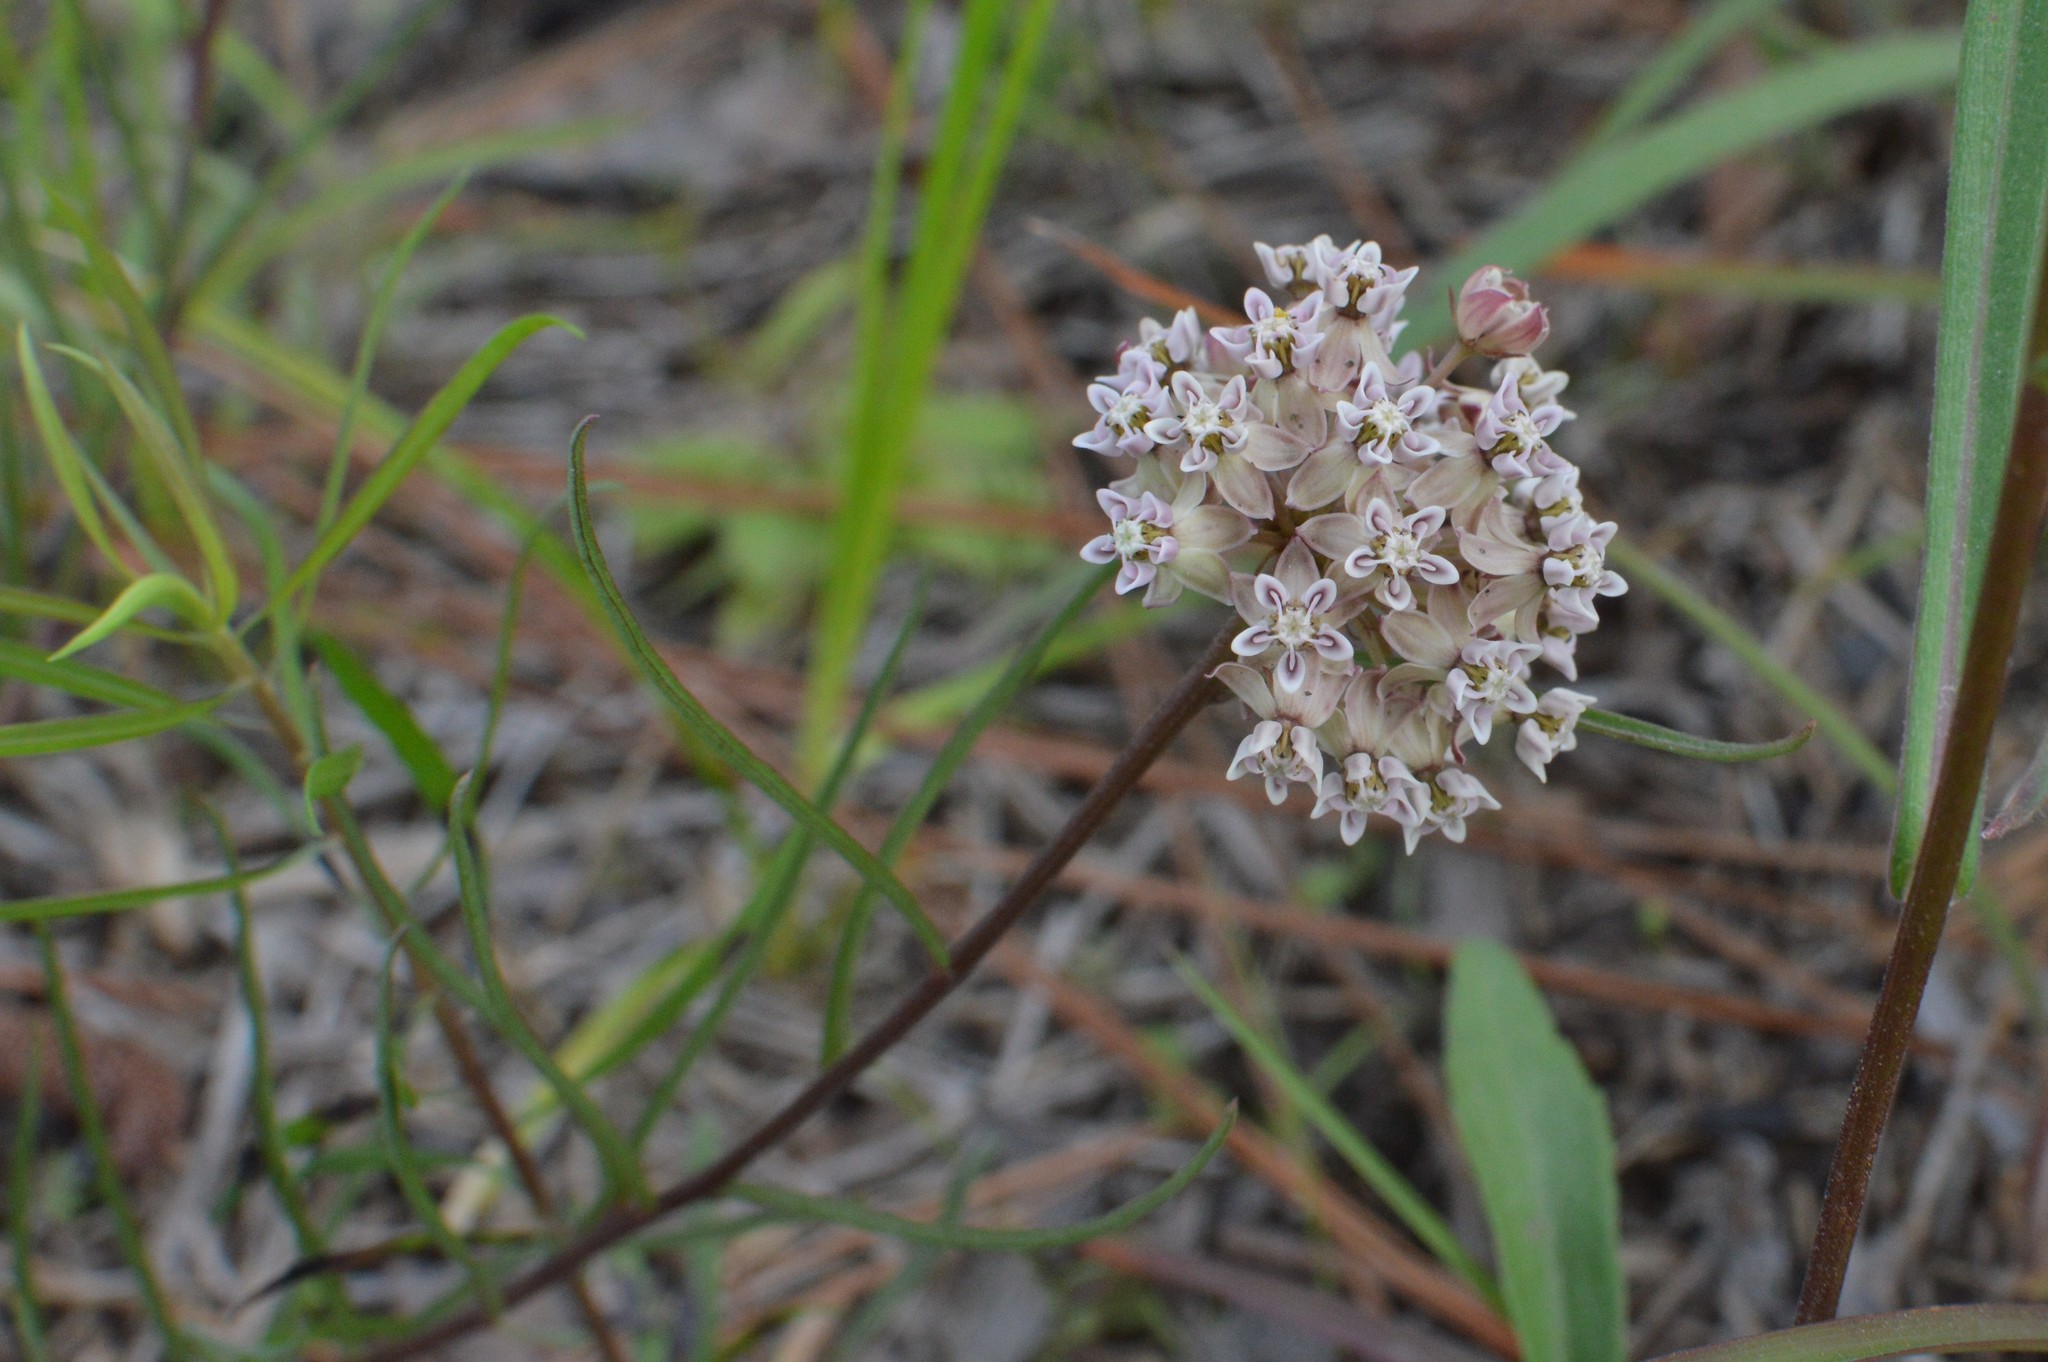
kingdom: Plantae
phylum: Tracheophyta
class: Magnoliopsida
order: Gentianales
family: Apocynaceae
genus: Asclepias
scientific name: Asclepias michauxii
